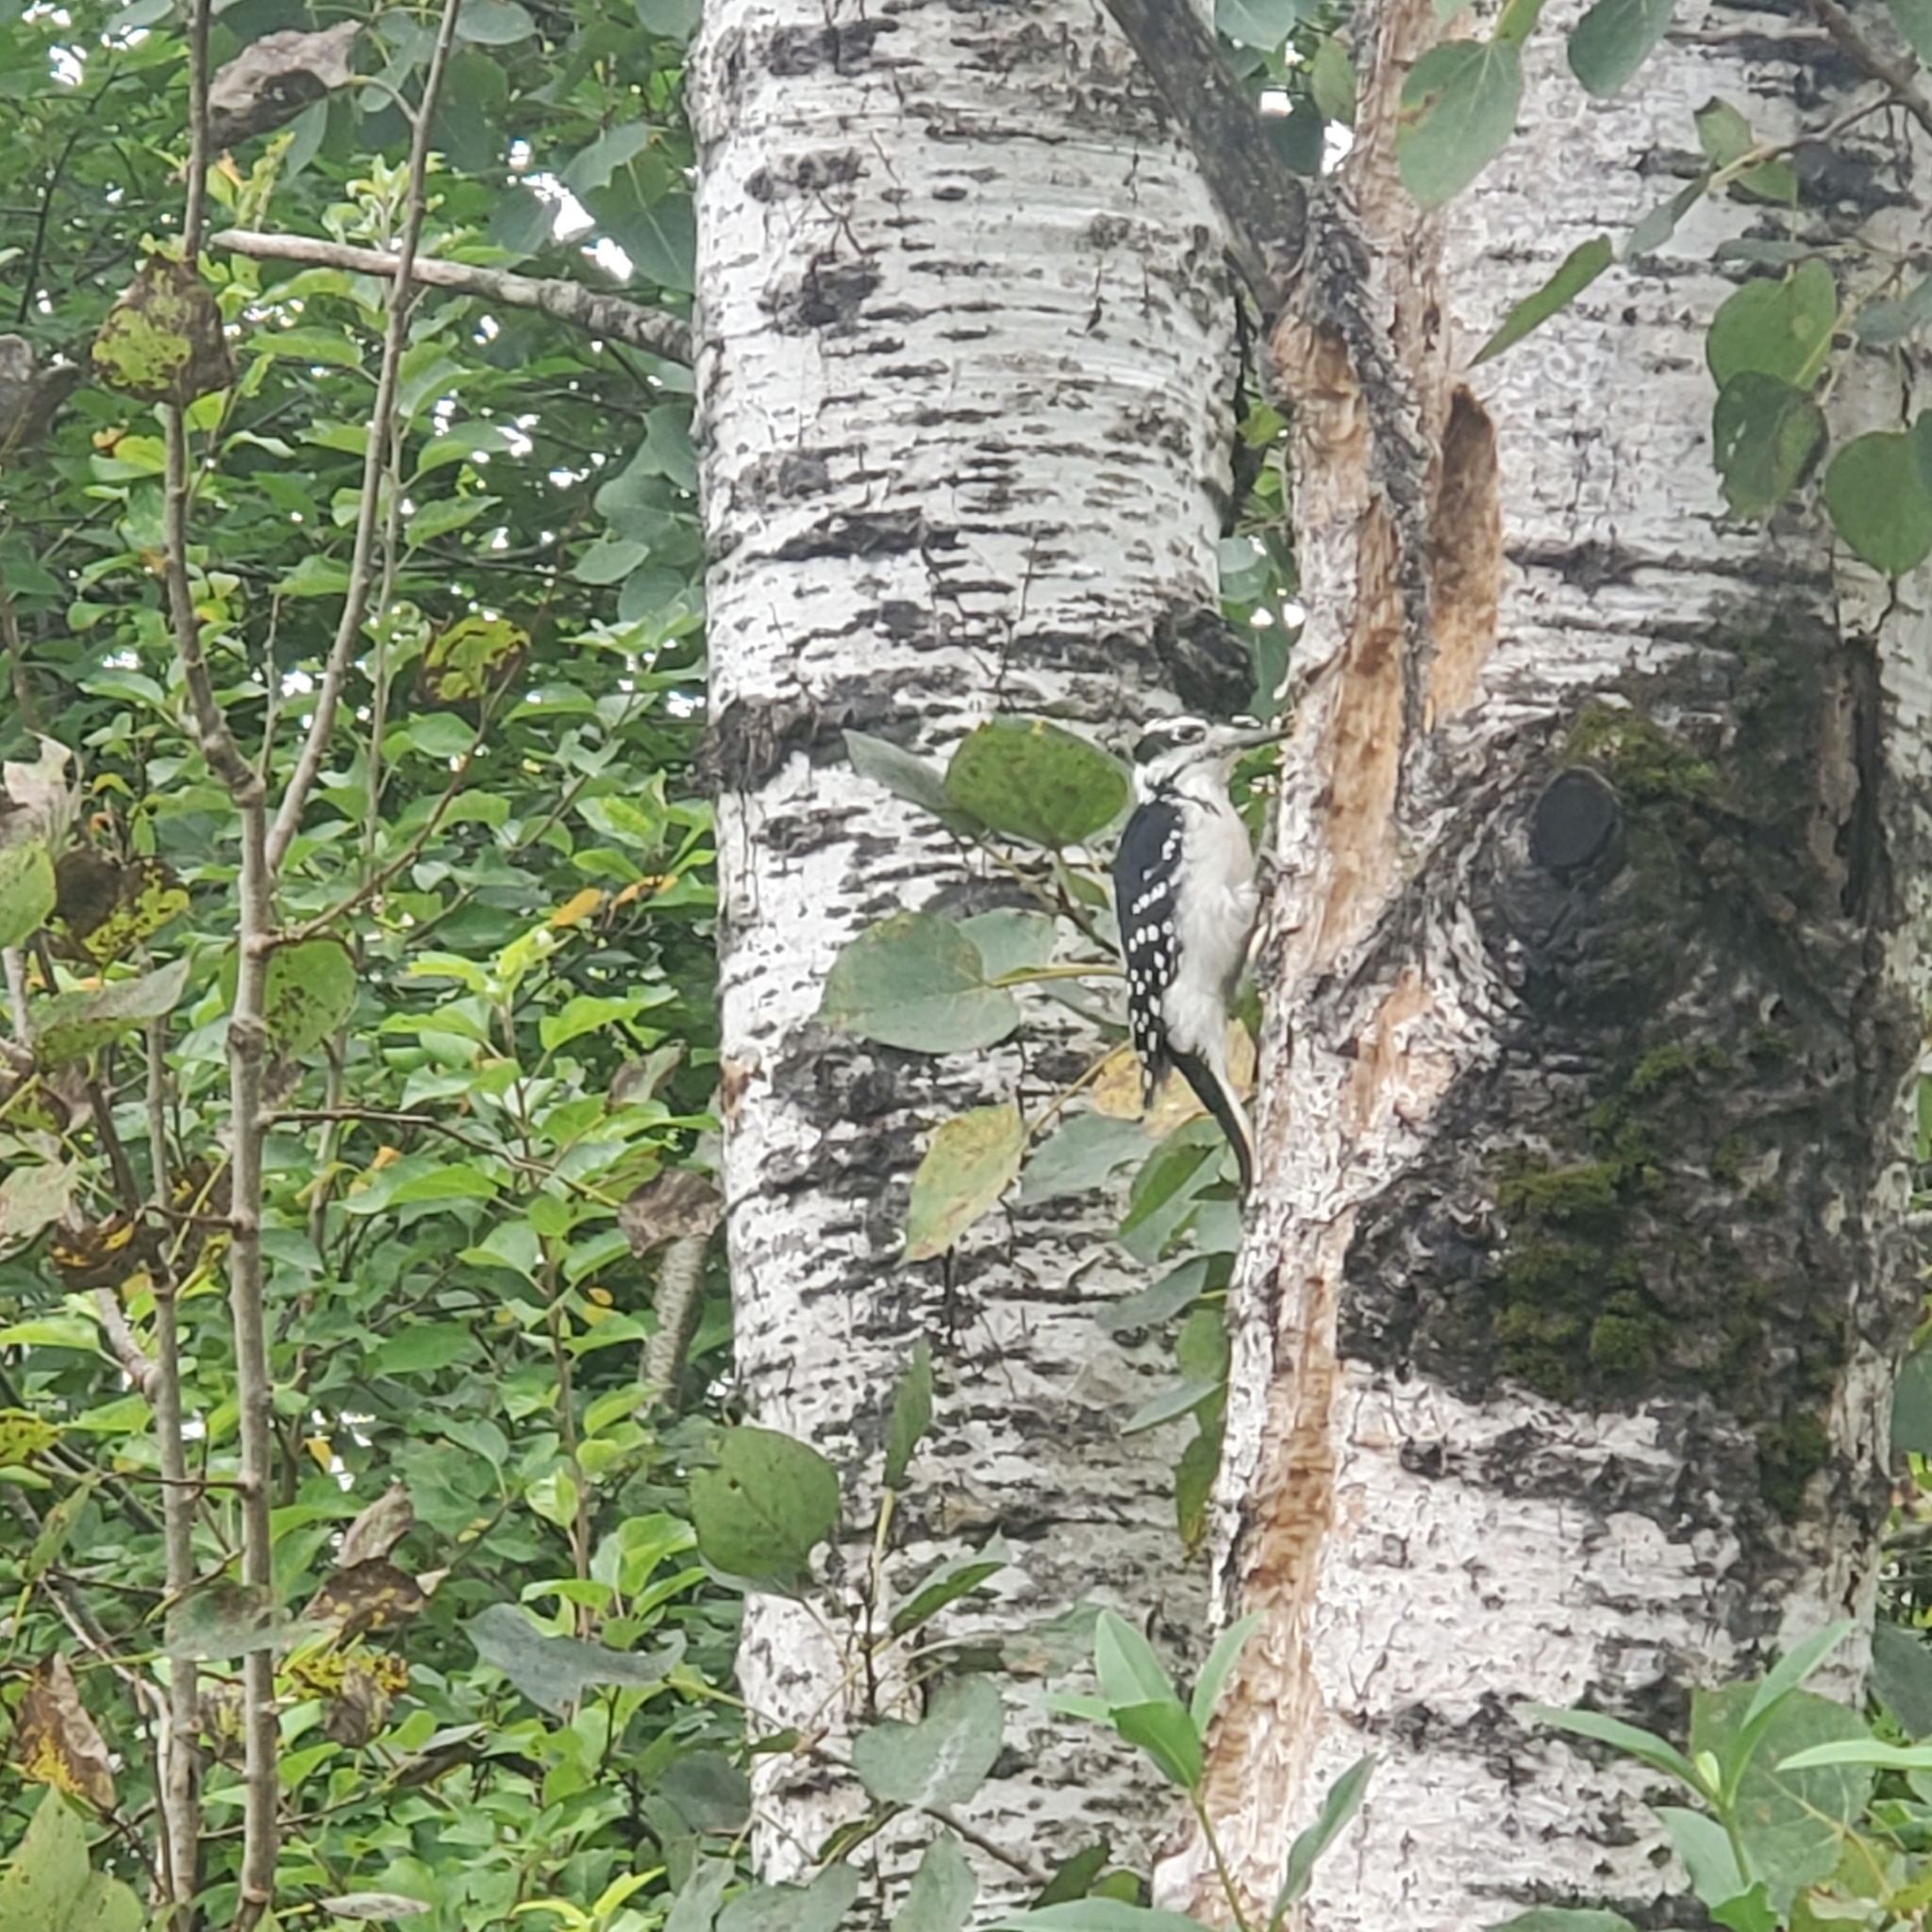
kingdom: Animalia
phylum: Chordata
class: Aves
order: Piciformes
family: Picidae
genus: Leuconotopicus
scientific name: Leuconotopicus villosus
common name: Hairy woodpecker
